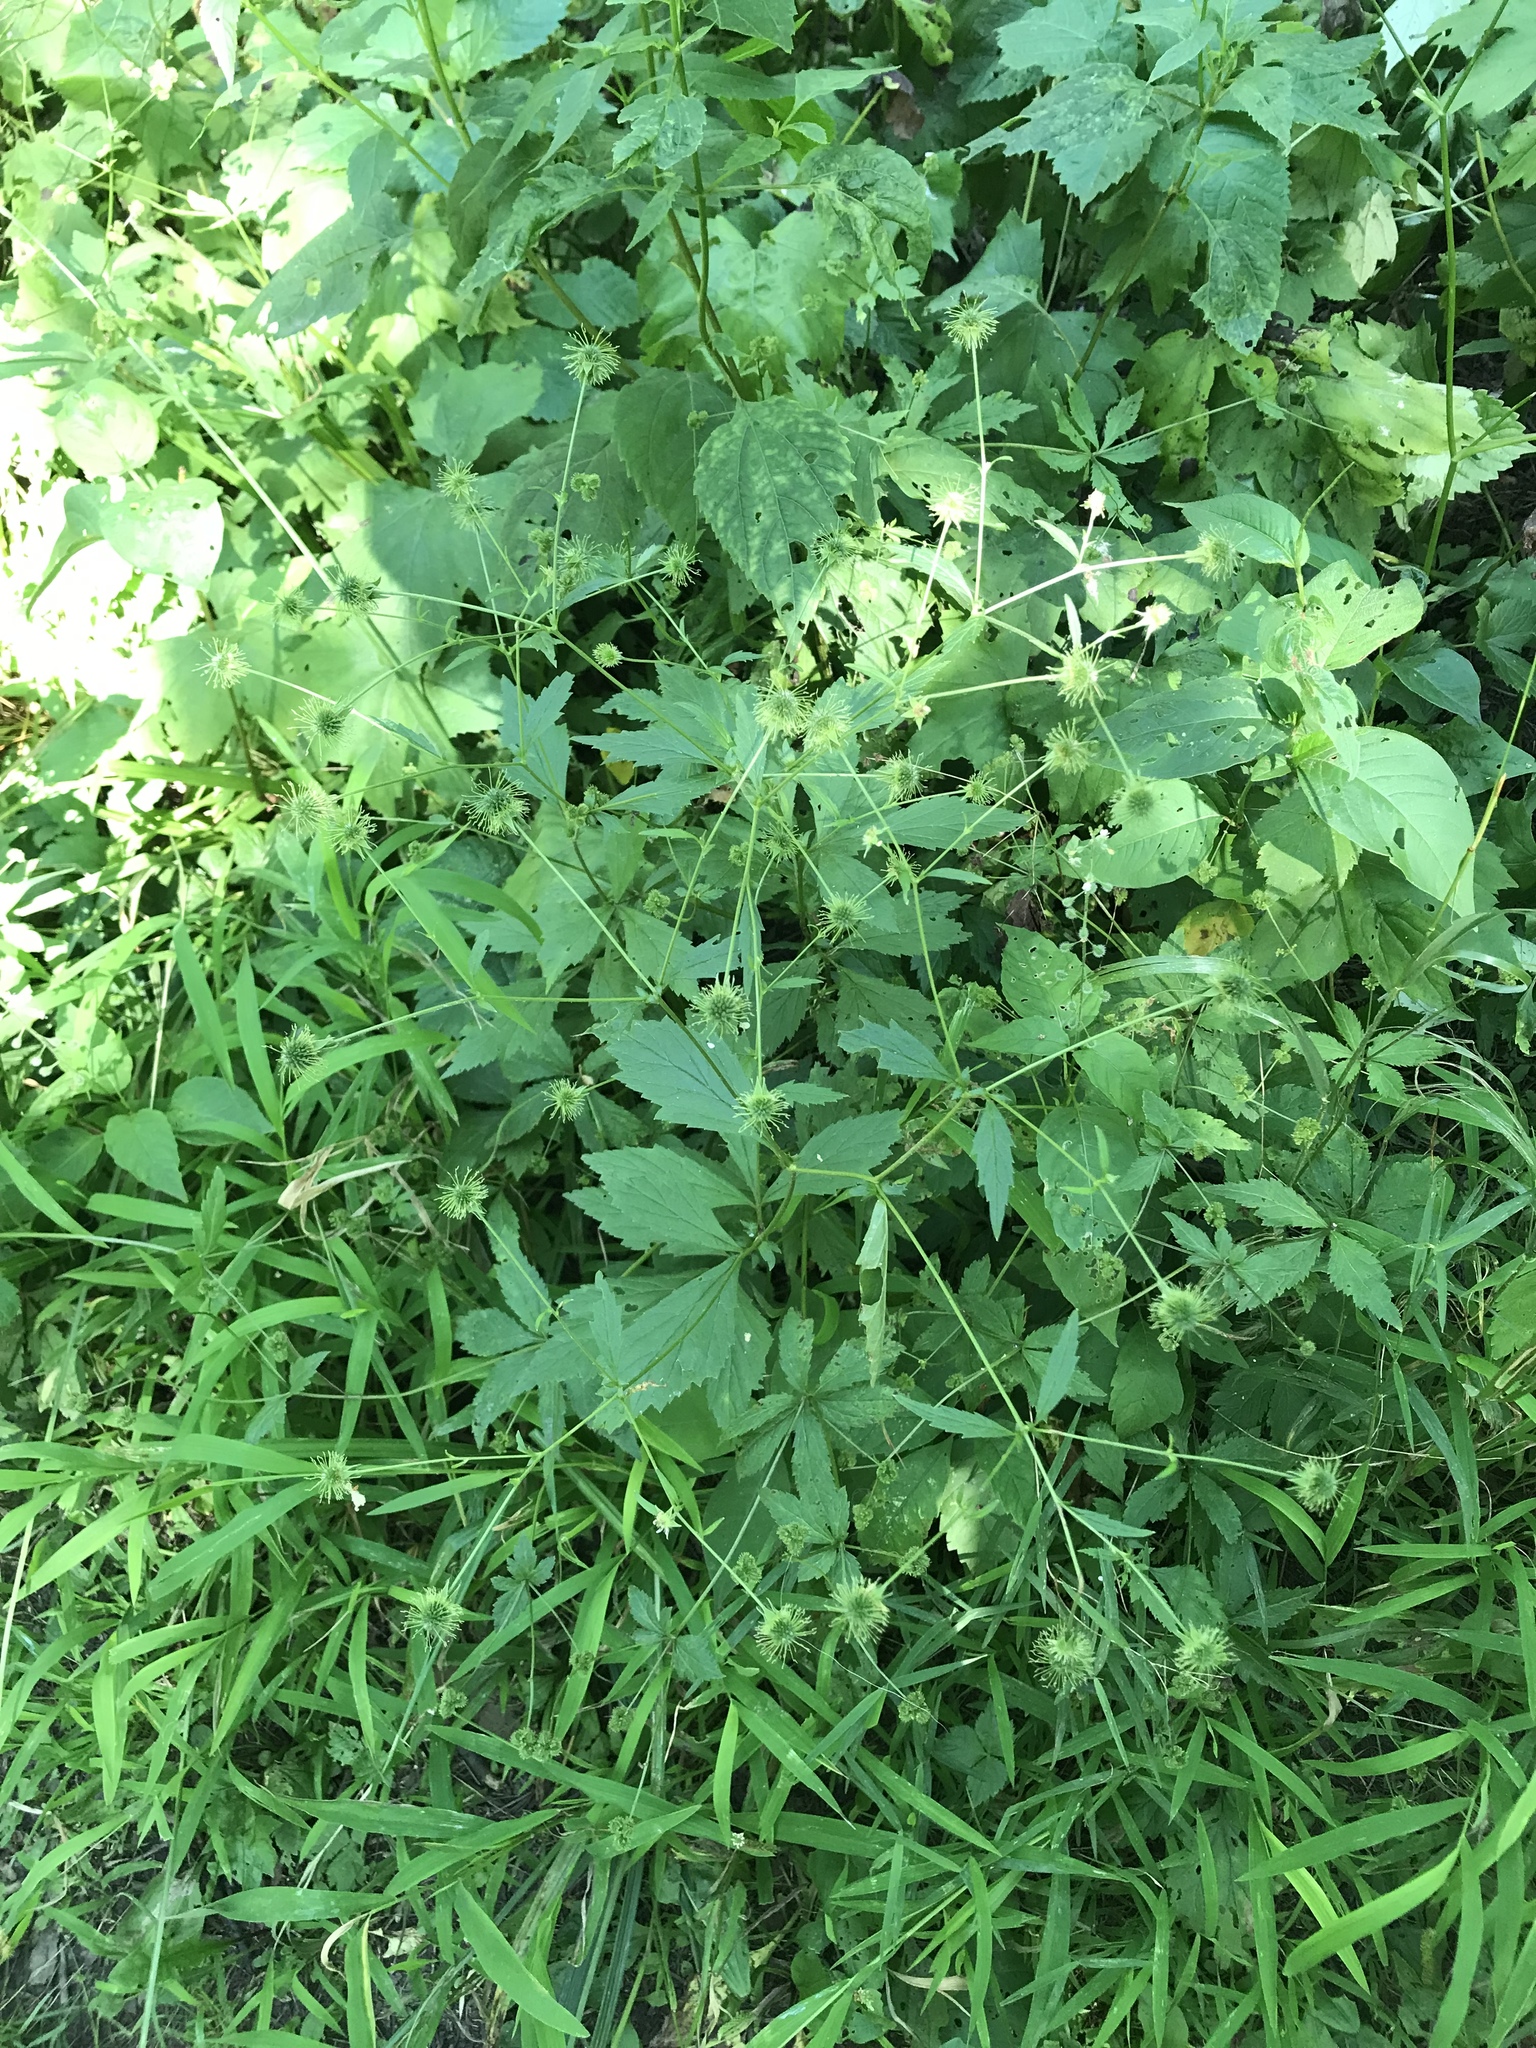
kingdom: Plantae
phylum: Tracheophyta
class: Magnoliopsida
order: Rosales
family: Rosaceae
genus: Geum
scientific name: Geum canadense
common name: White avens
